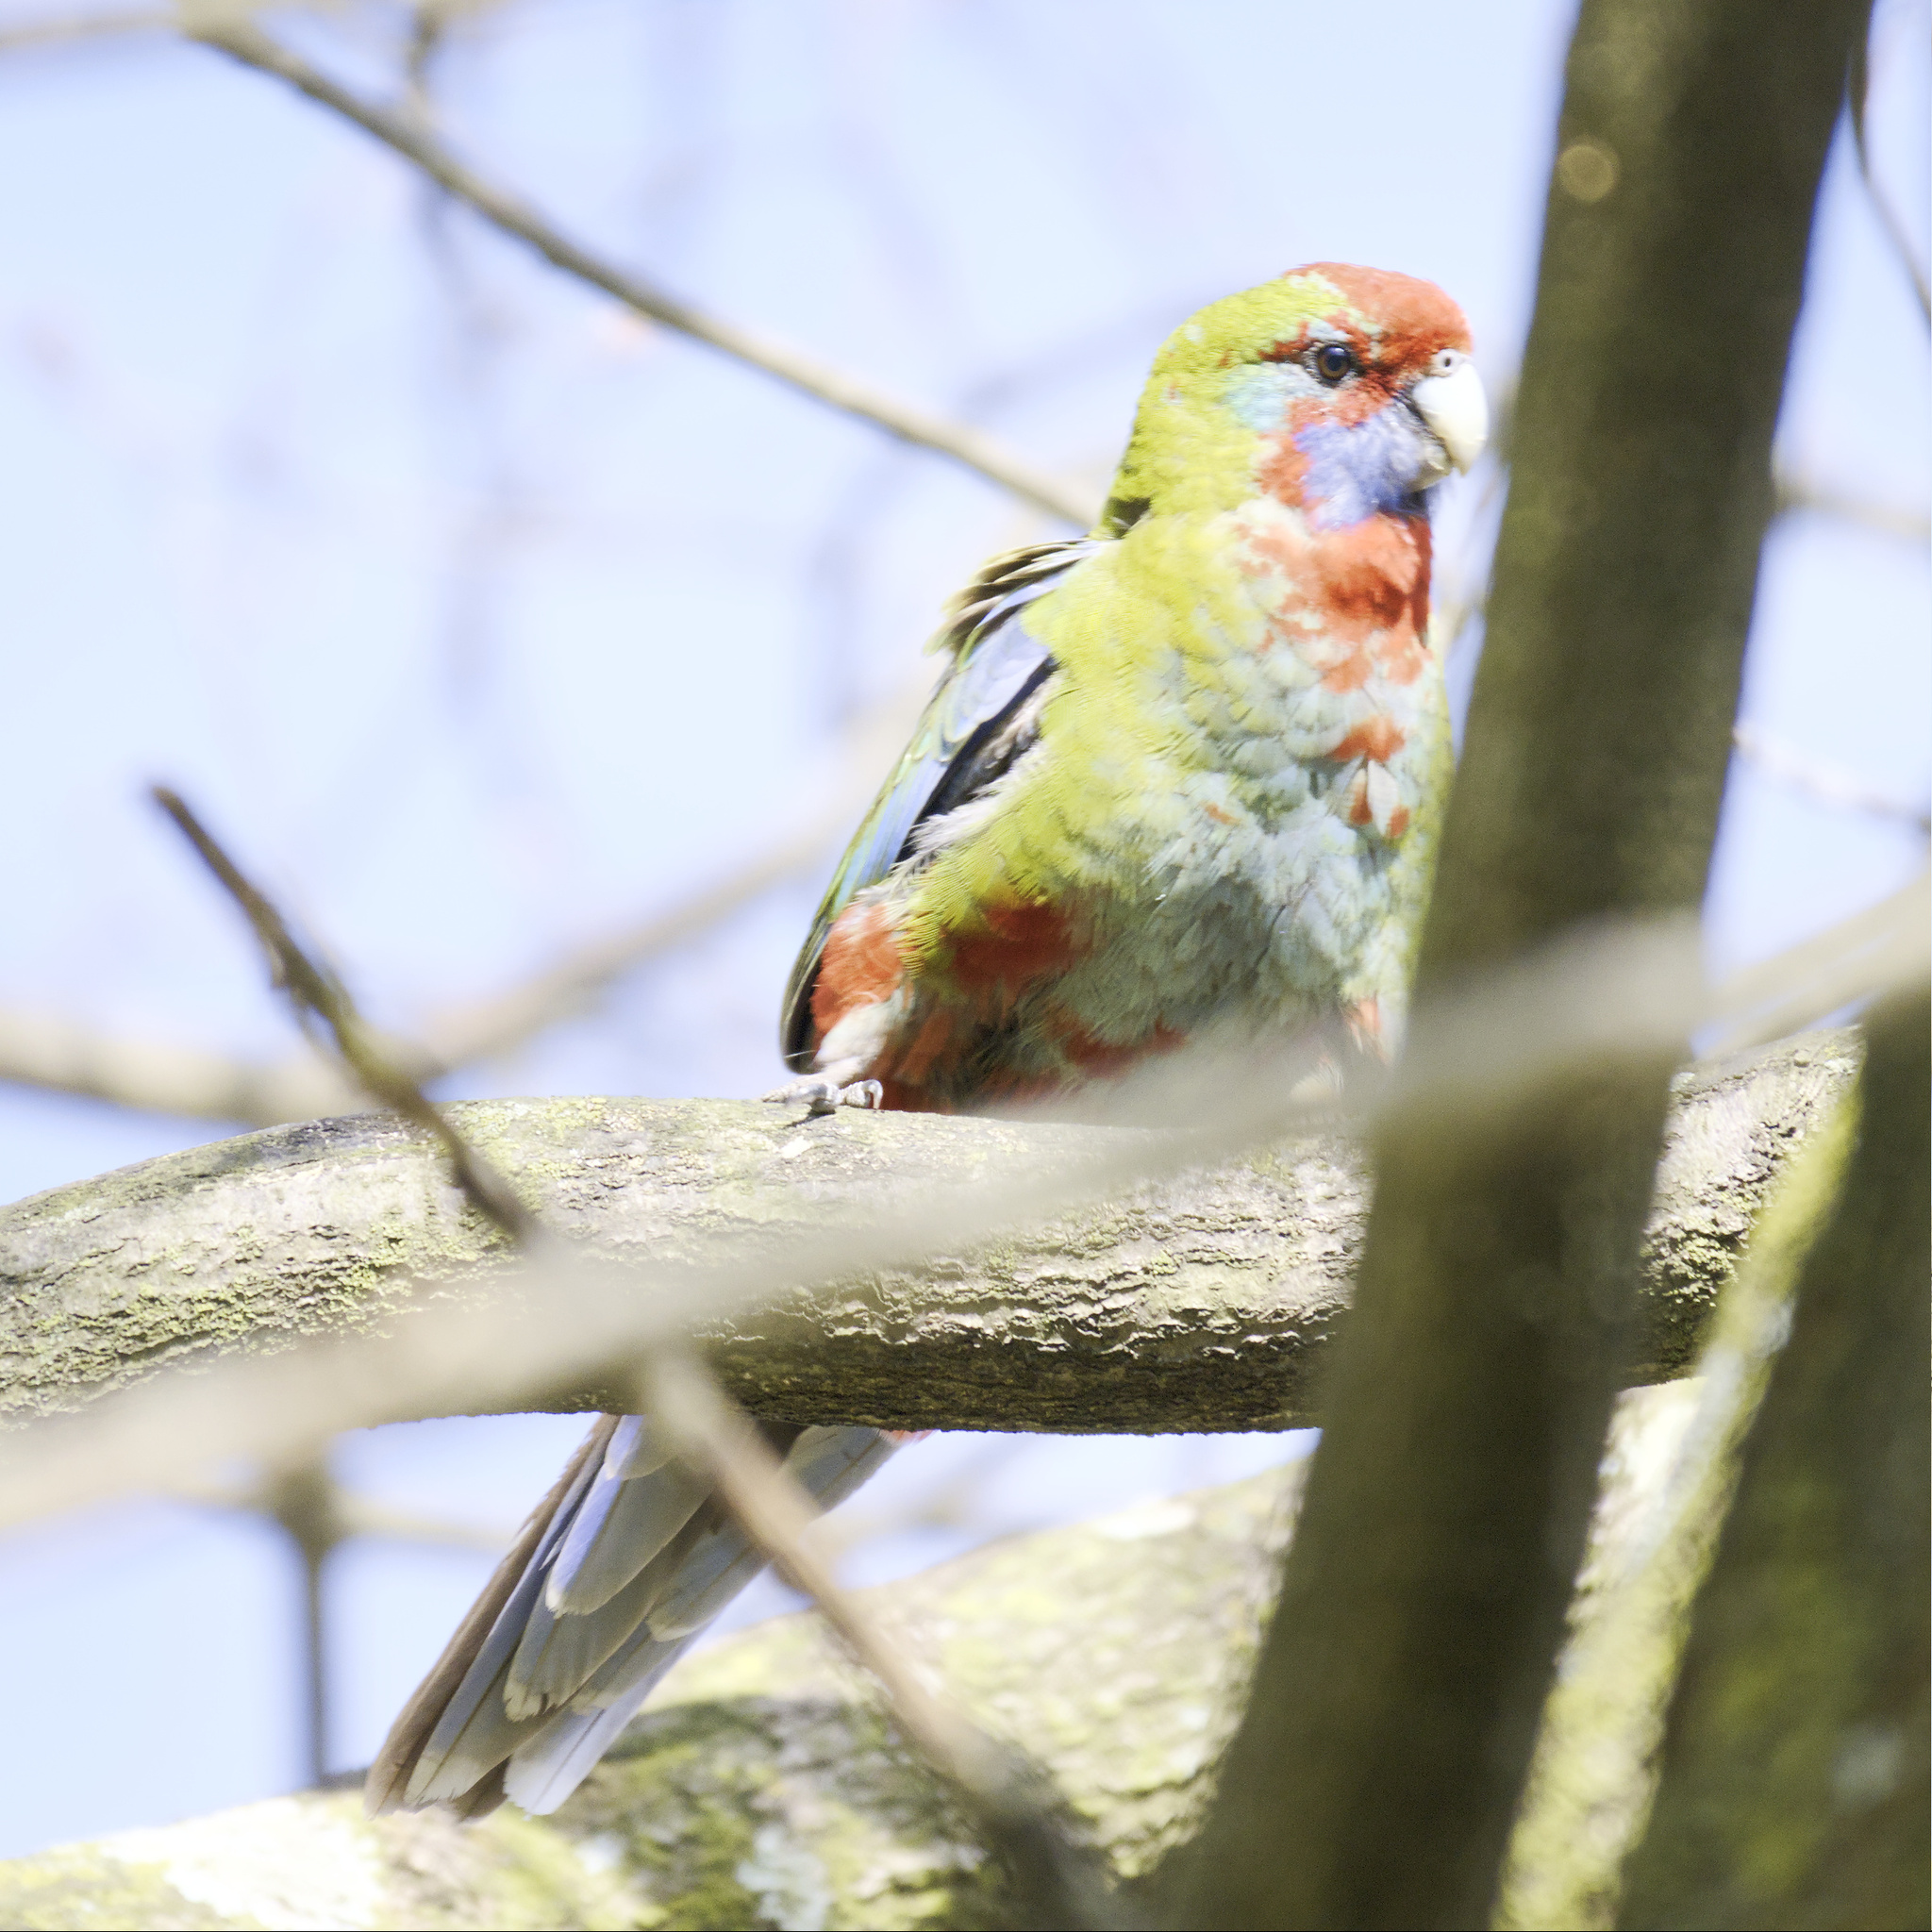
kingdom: Animalia
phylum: Chordata
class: Aves
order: Psittaciformes
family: Psittacidae
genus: Platycercus
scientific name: Platycercus elegans
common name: Crimson rosella
